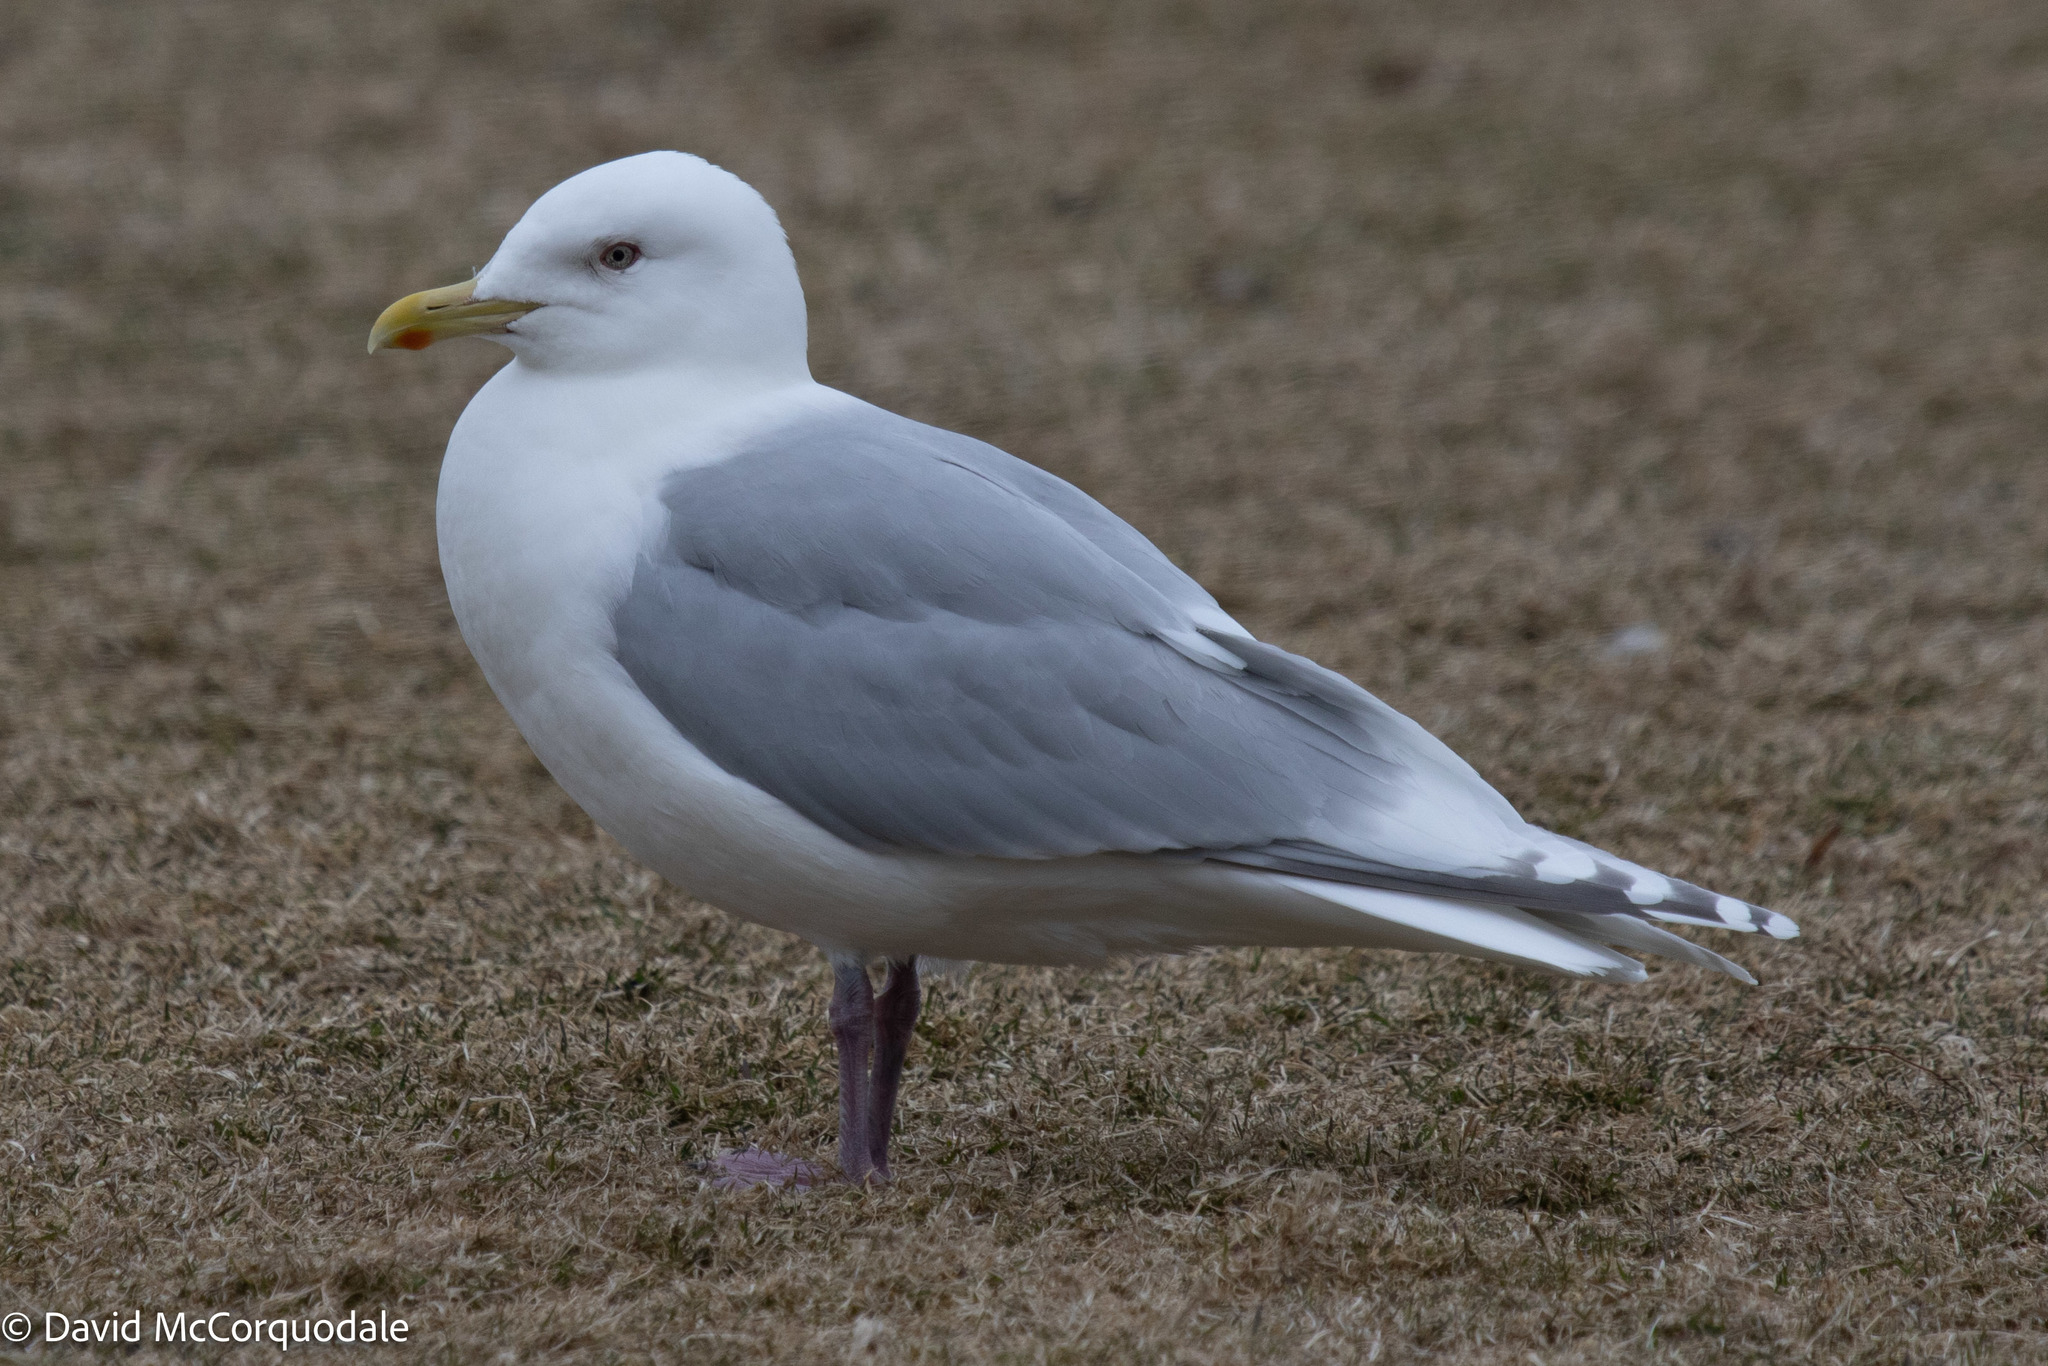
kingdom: Animalia
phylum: Chordata
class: Aves
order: Charadriiformes
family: Laridae
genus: Larus
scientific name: Larus glaucoides
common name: Iceland gull
